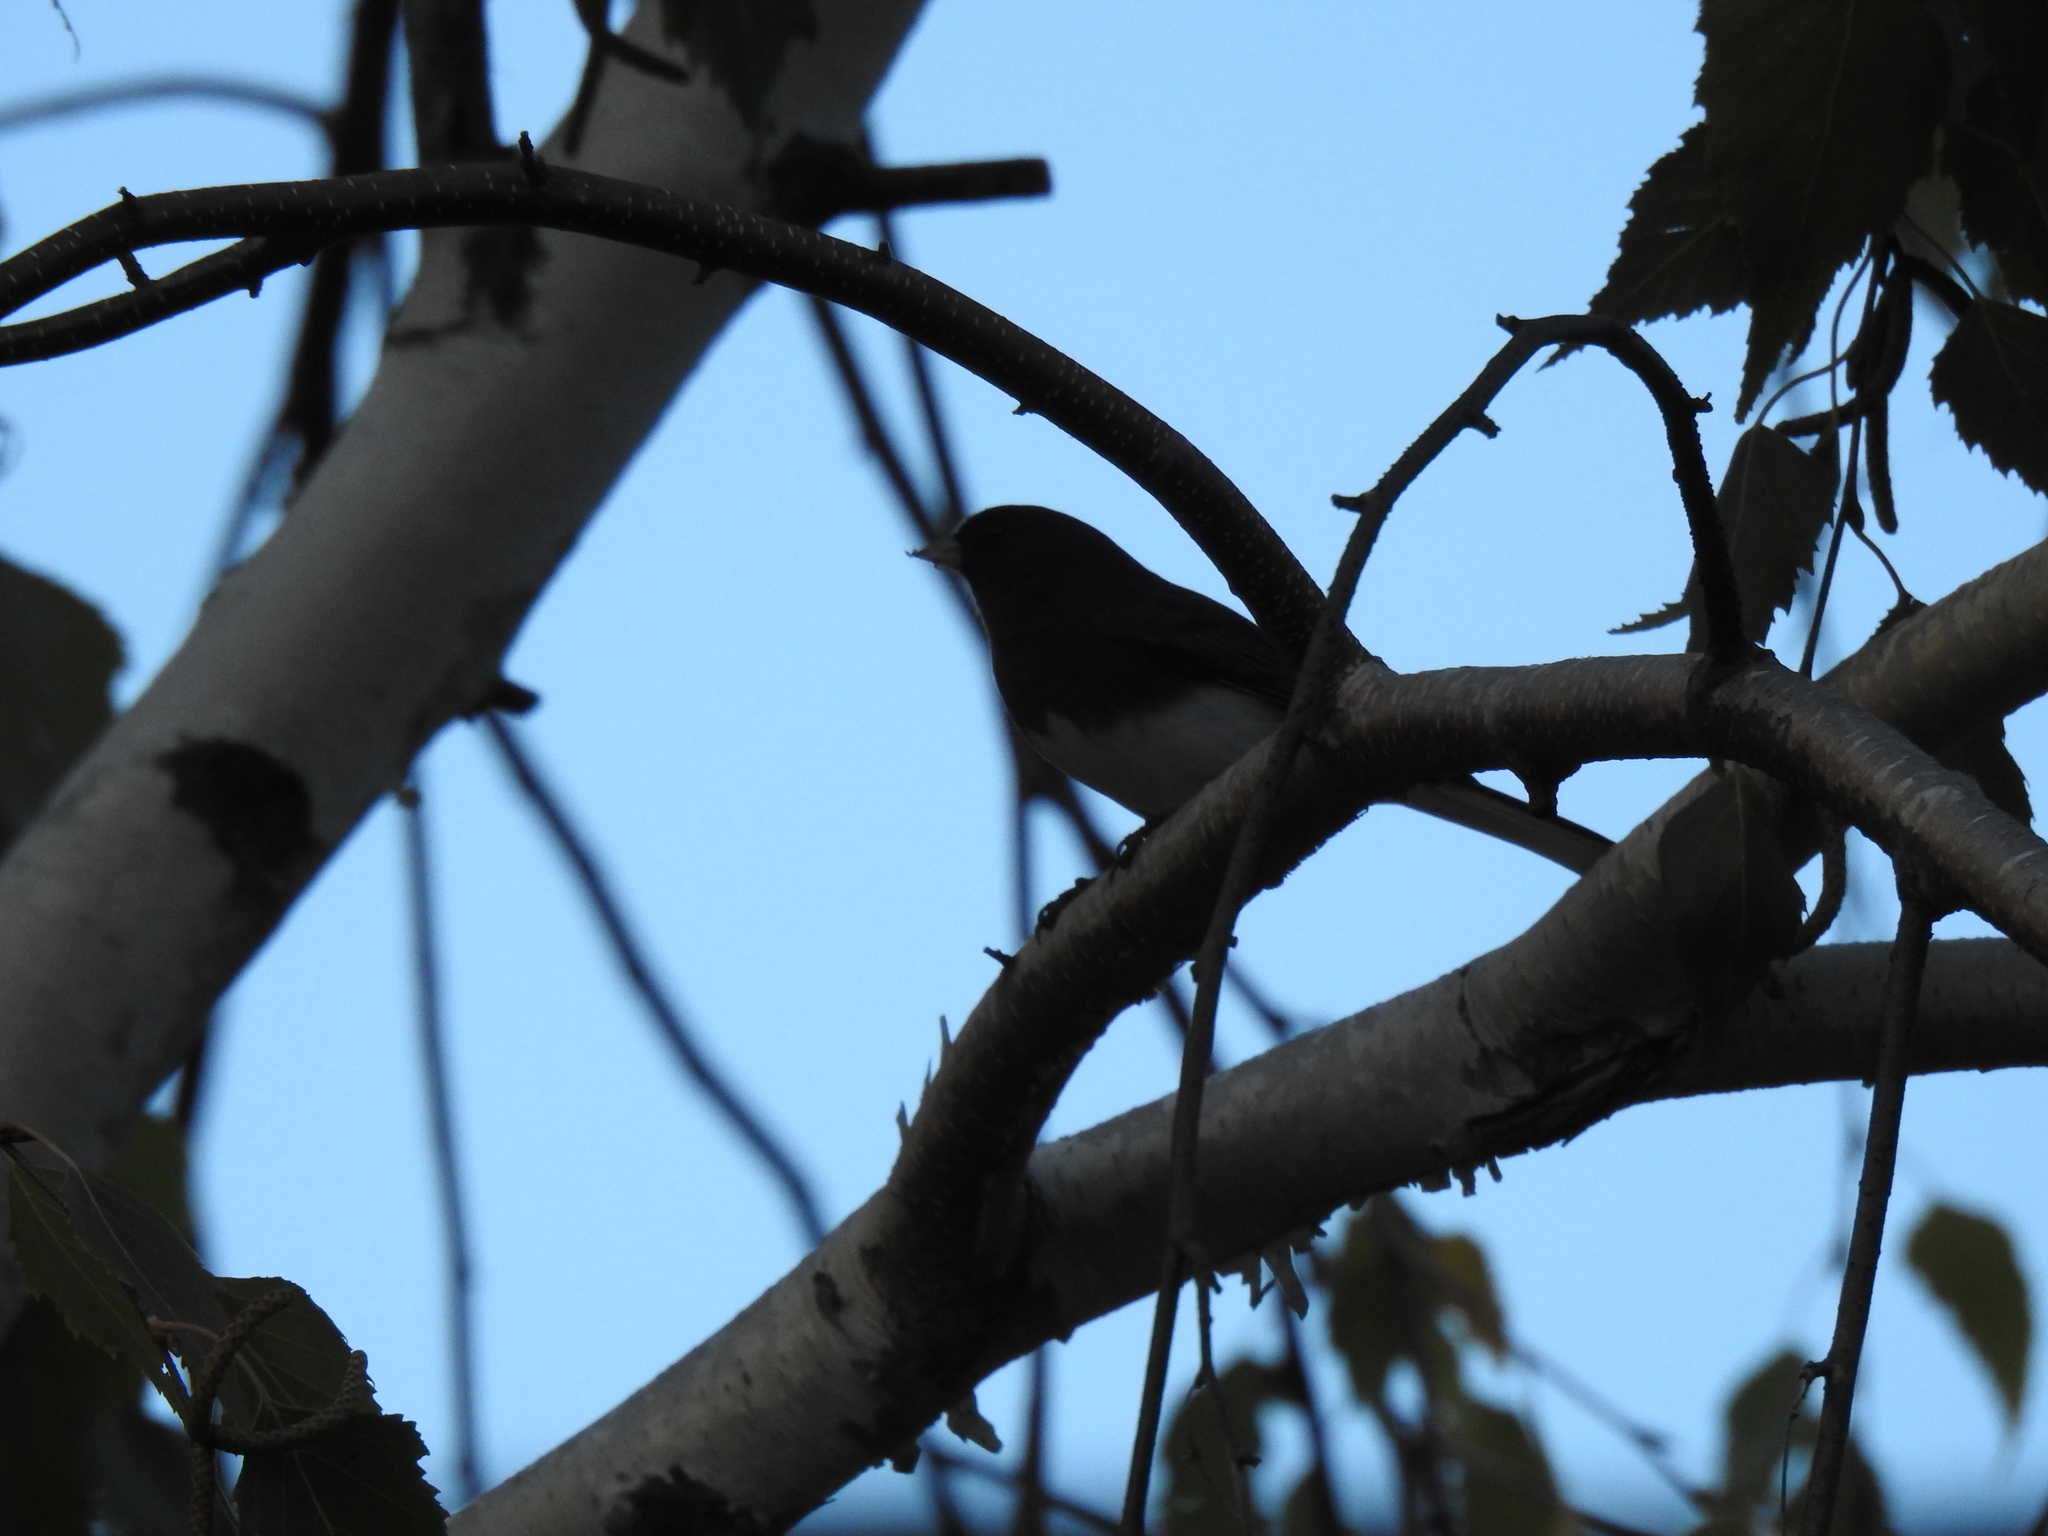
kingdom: Animalia
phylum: Chordata
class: Aves
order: Passeriformes
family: Passerellidae
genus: Junco
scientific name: Junco hyemalis
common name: Dark-eyed junco
